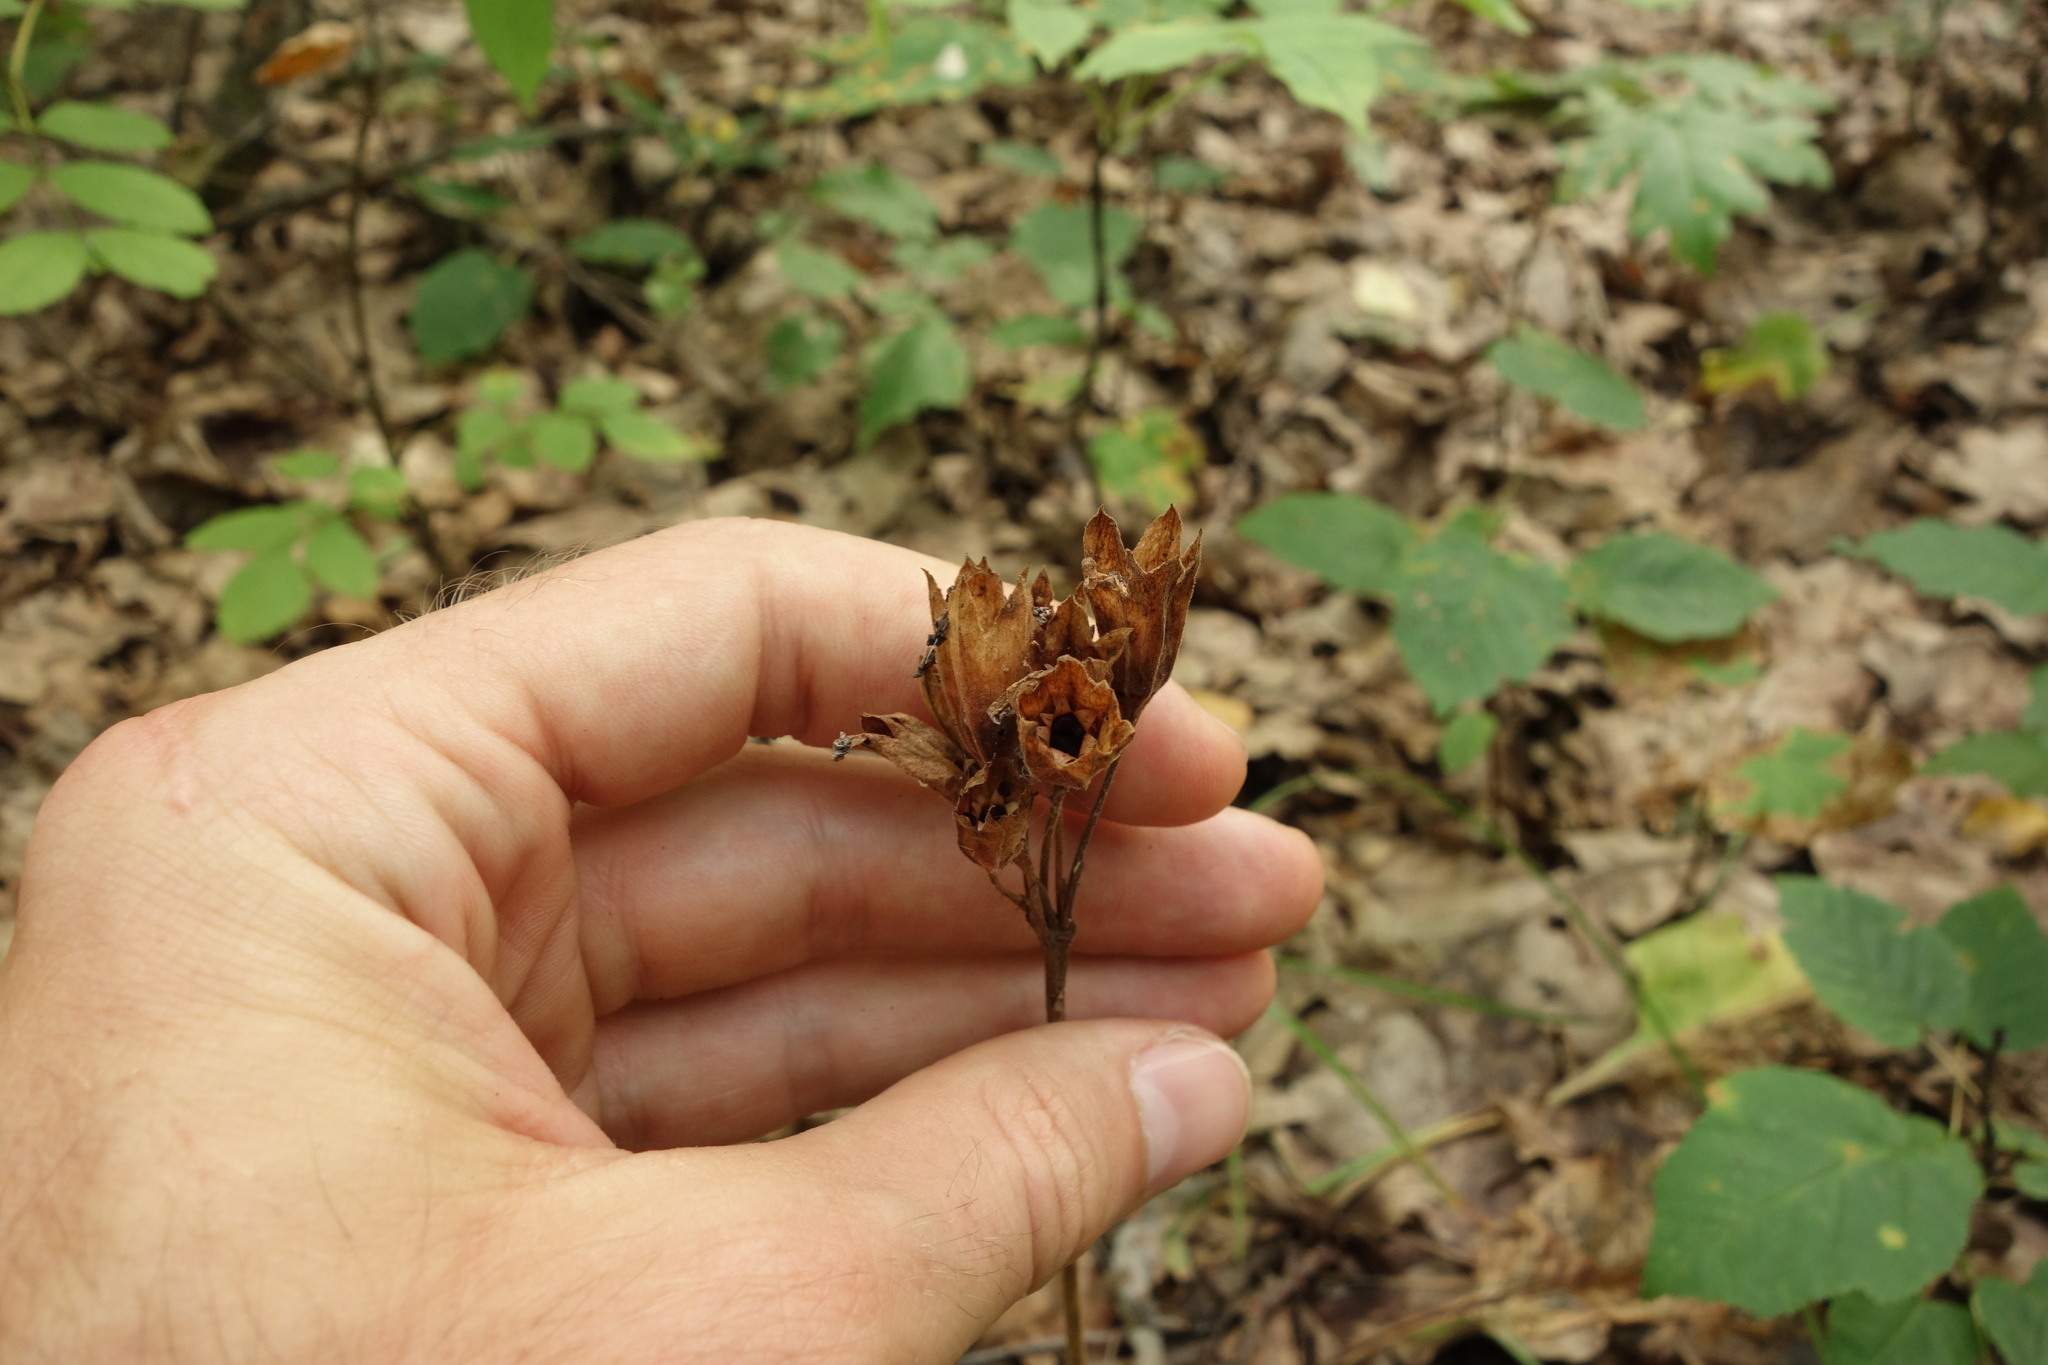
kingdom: Plantae
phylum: Tracheophyta
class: Magnoliopsida
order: Ericales
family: Primulaceae
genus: Primula
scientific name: Primula veris
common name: Cowslip
